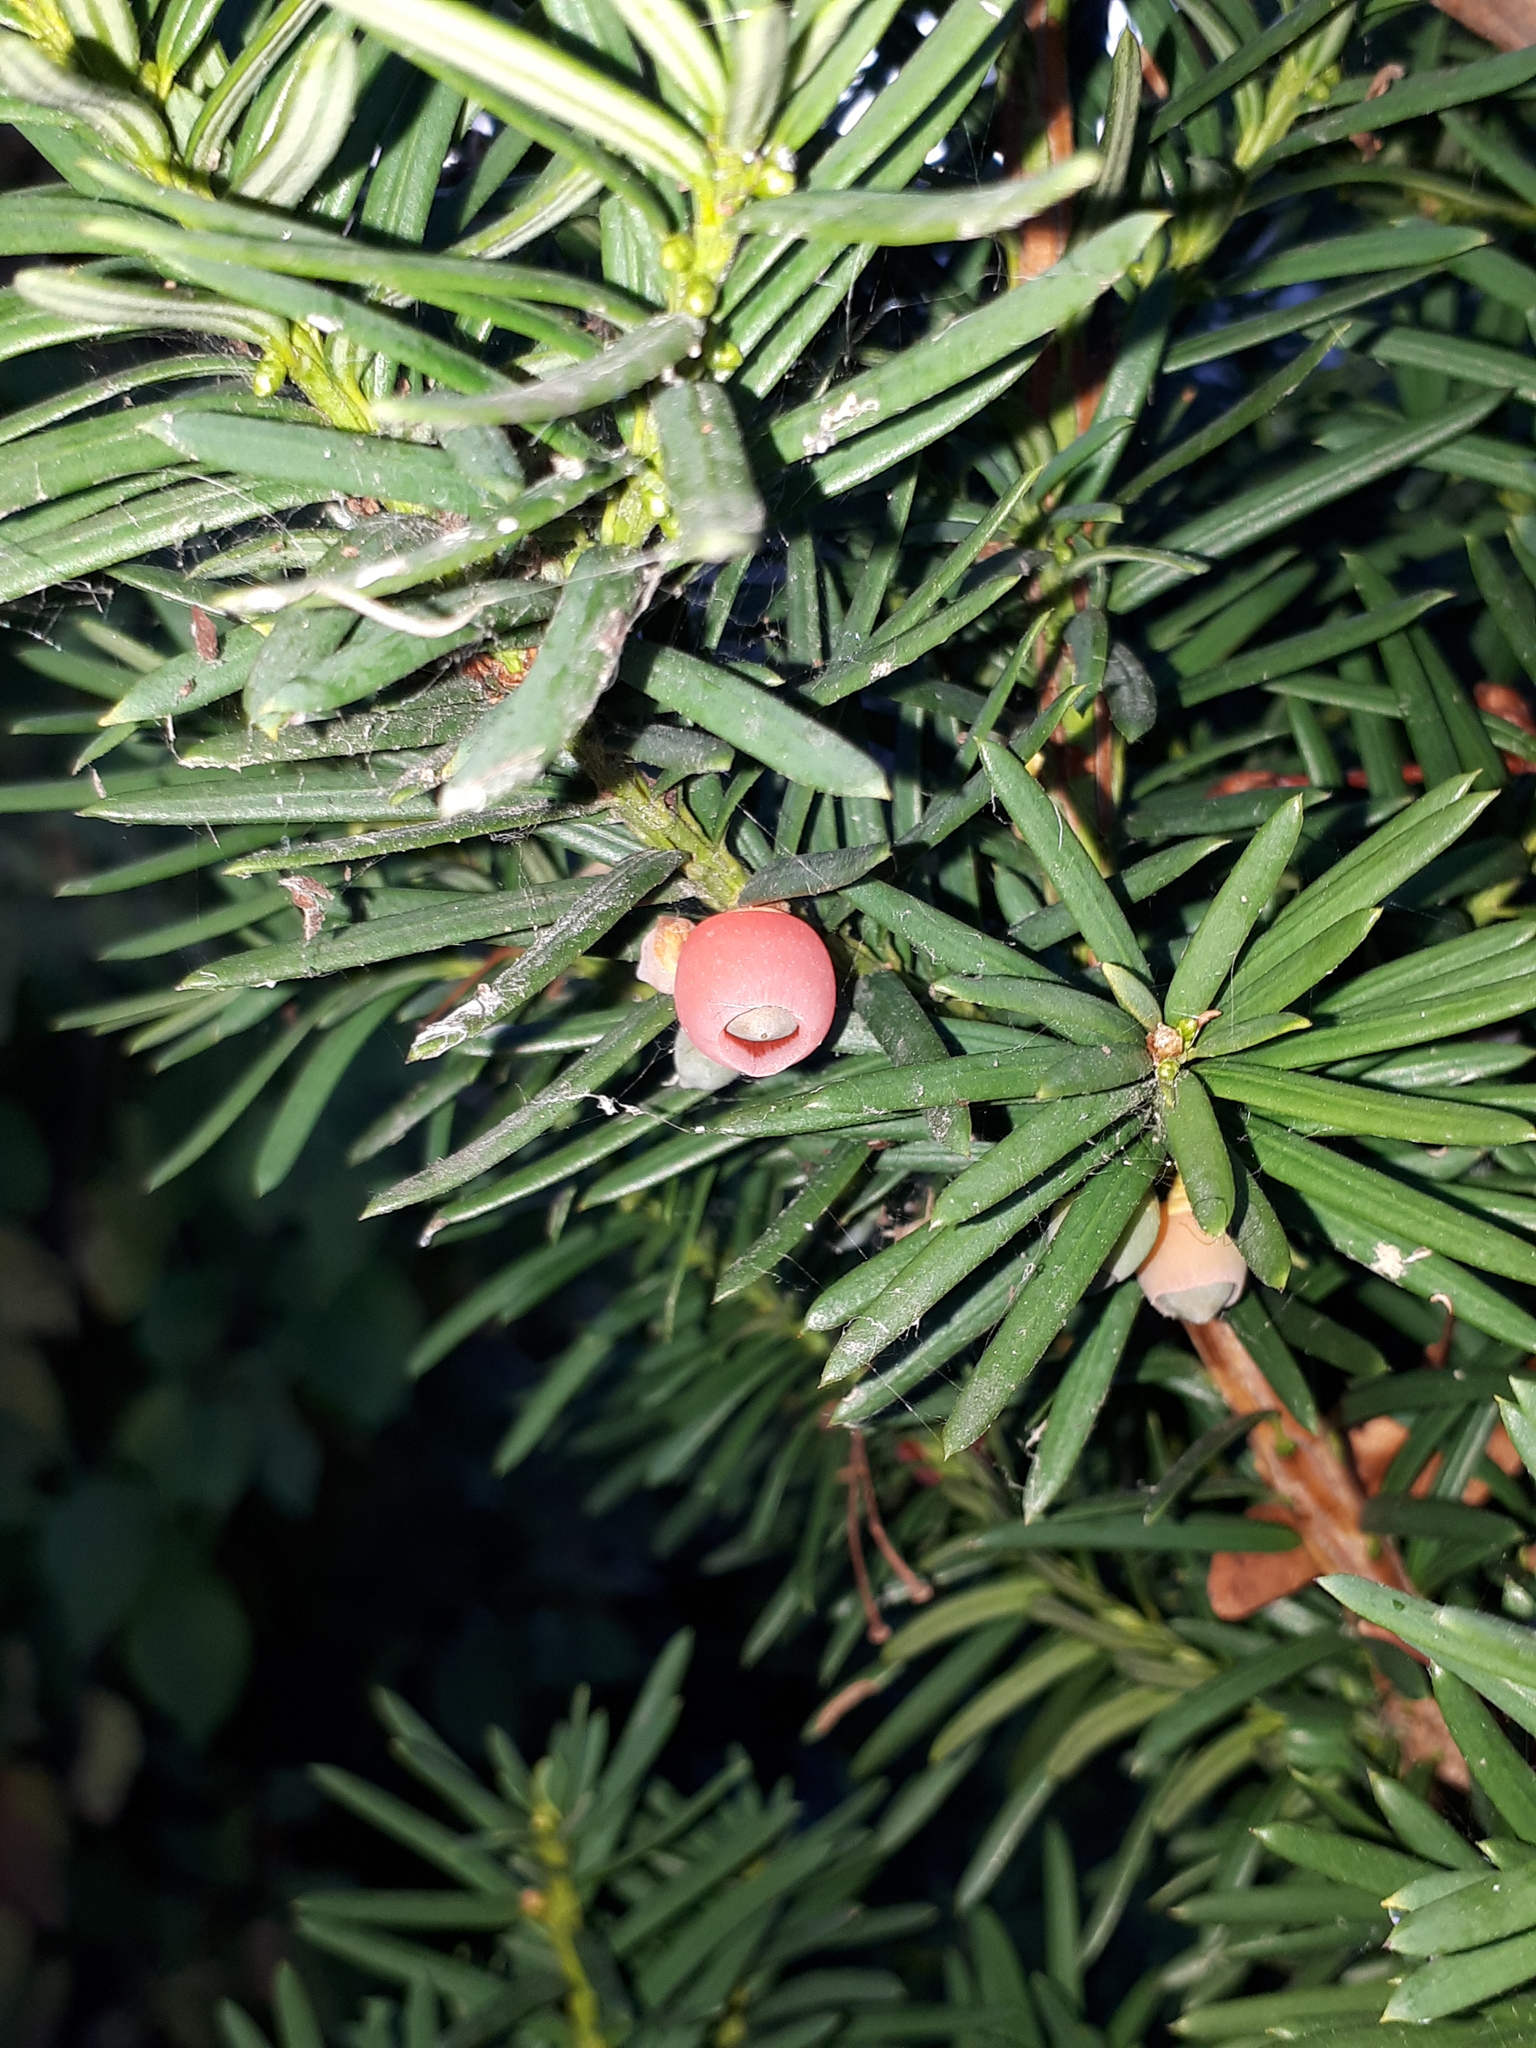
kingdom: Plantae
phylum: Tracheophyta
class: Pinopsida
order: Pinales
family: Taxaceae
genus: Taxus
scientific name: Taxus baccata
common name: Yew
